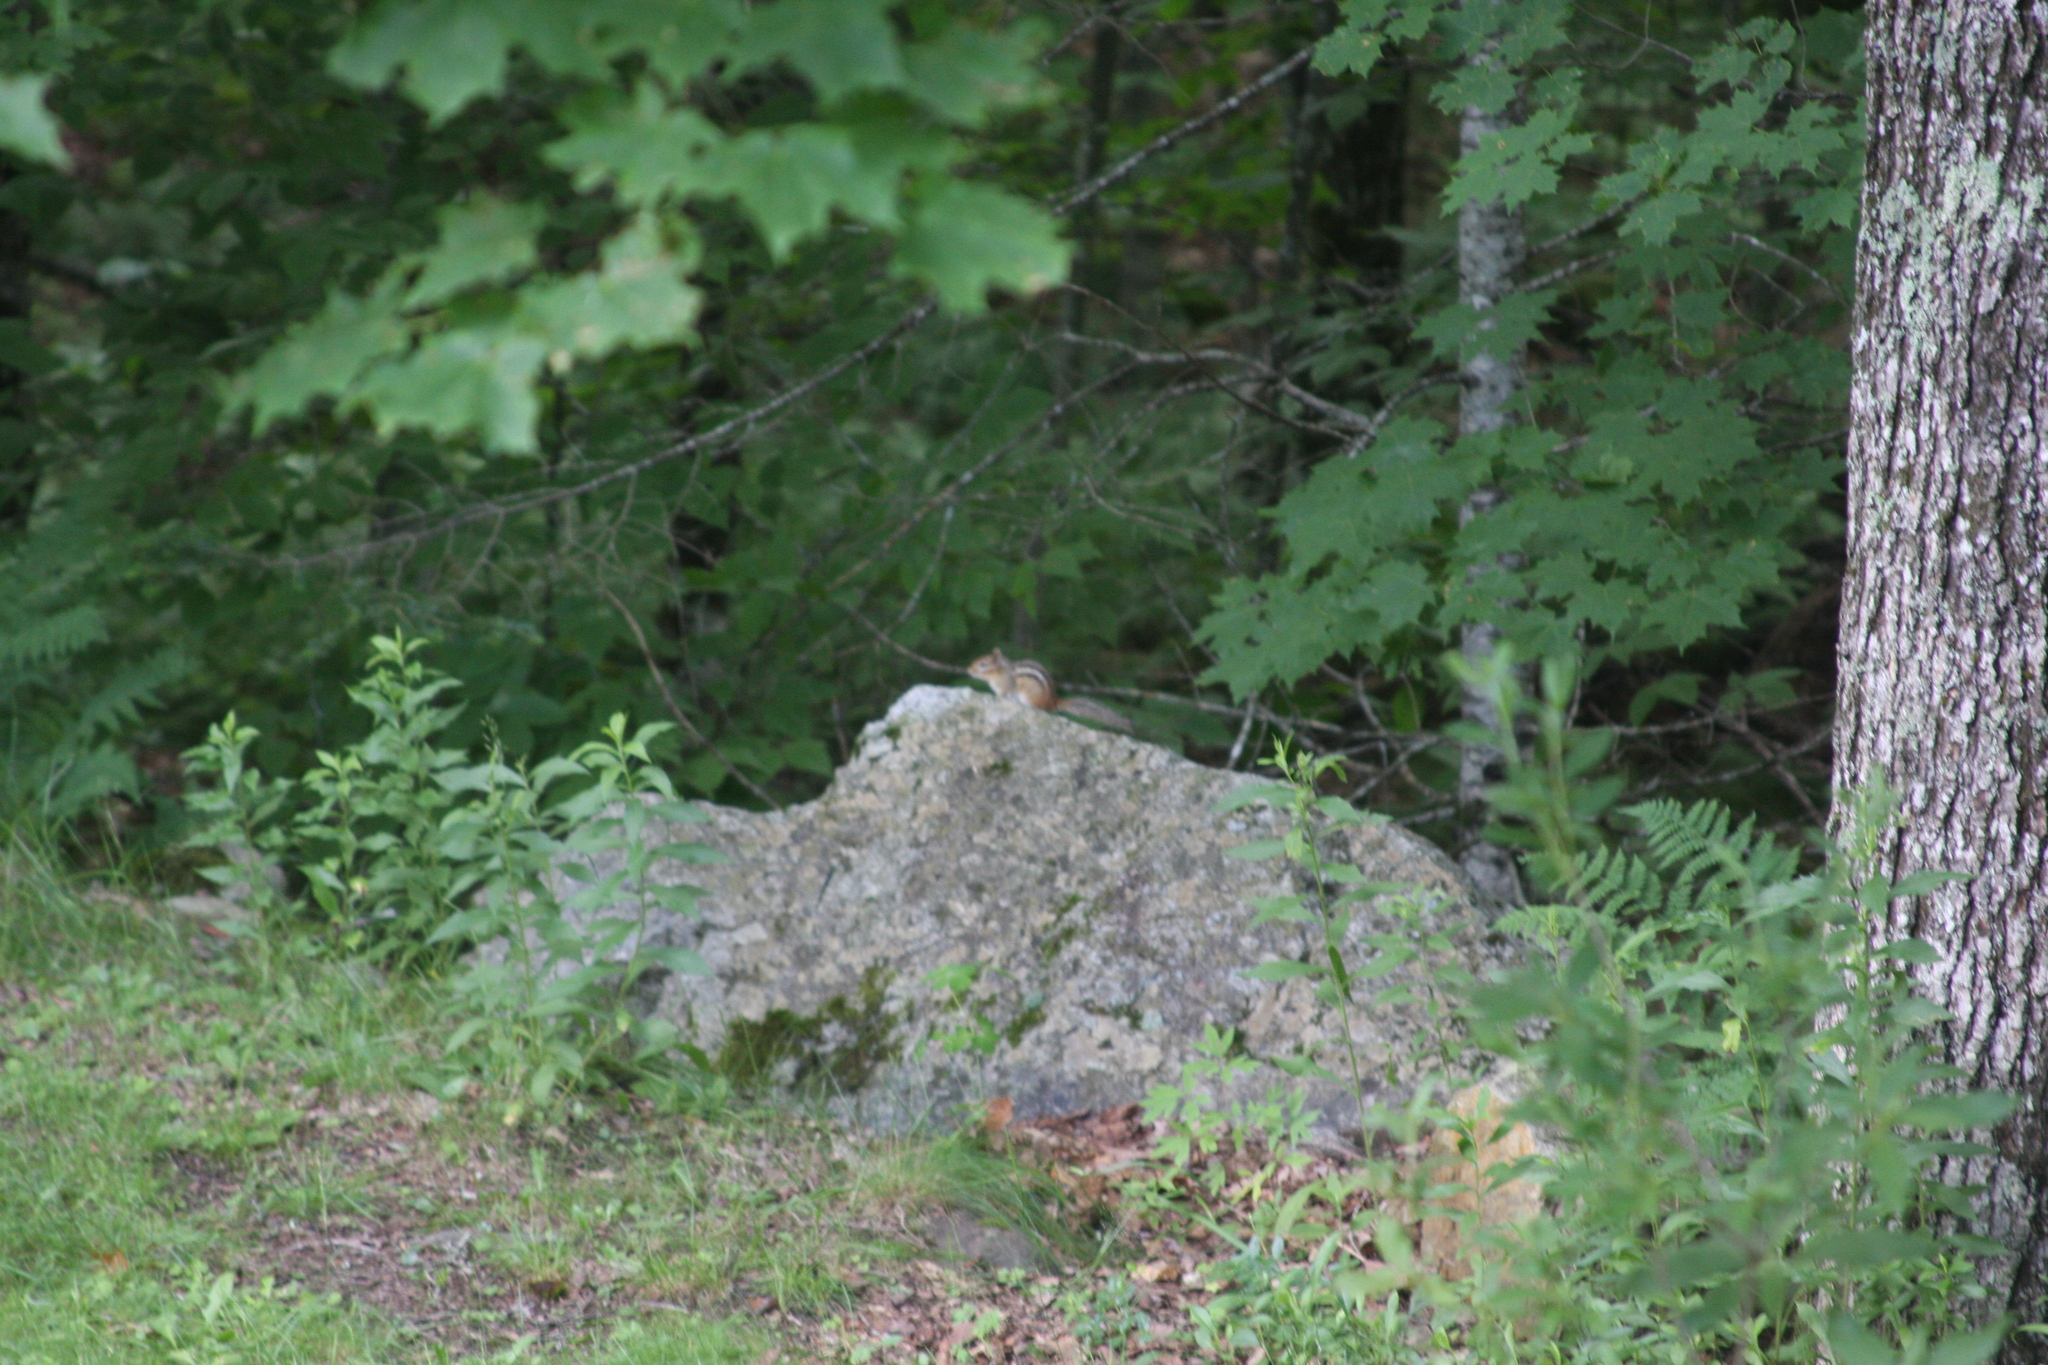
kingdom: Animalia
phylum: Chordata
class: Mammalia
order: Rodentia
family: Sciuridae
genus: Tamias
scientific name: Tamias striatus
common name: Eastern chipmunk
